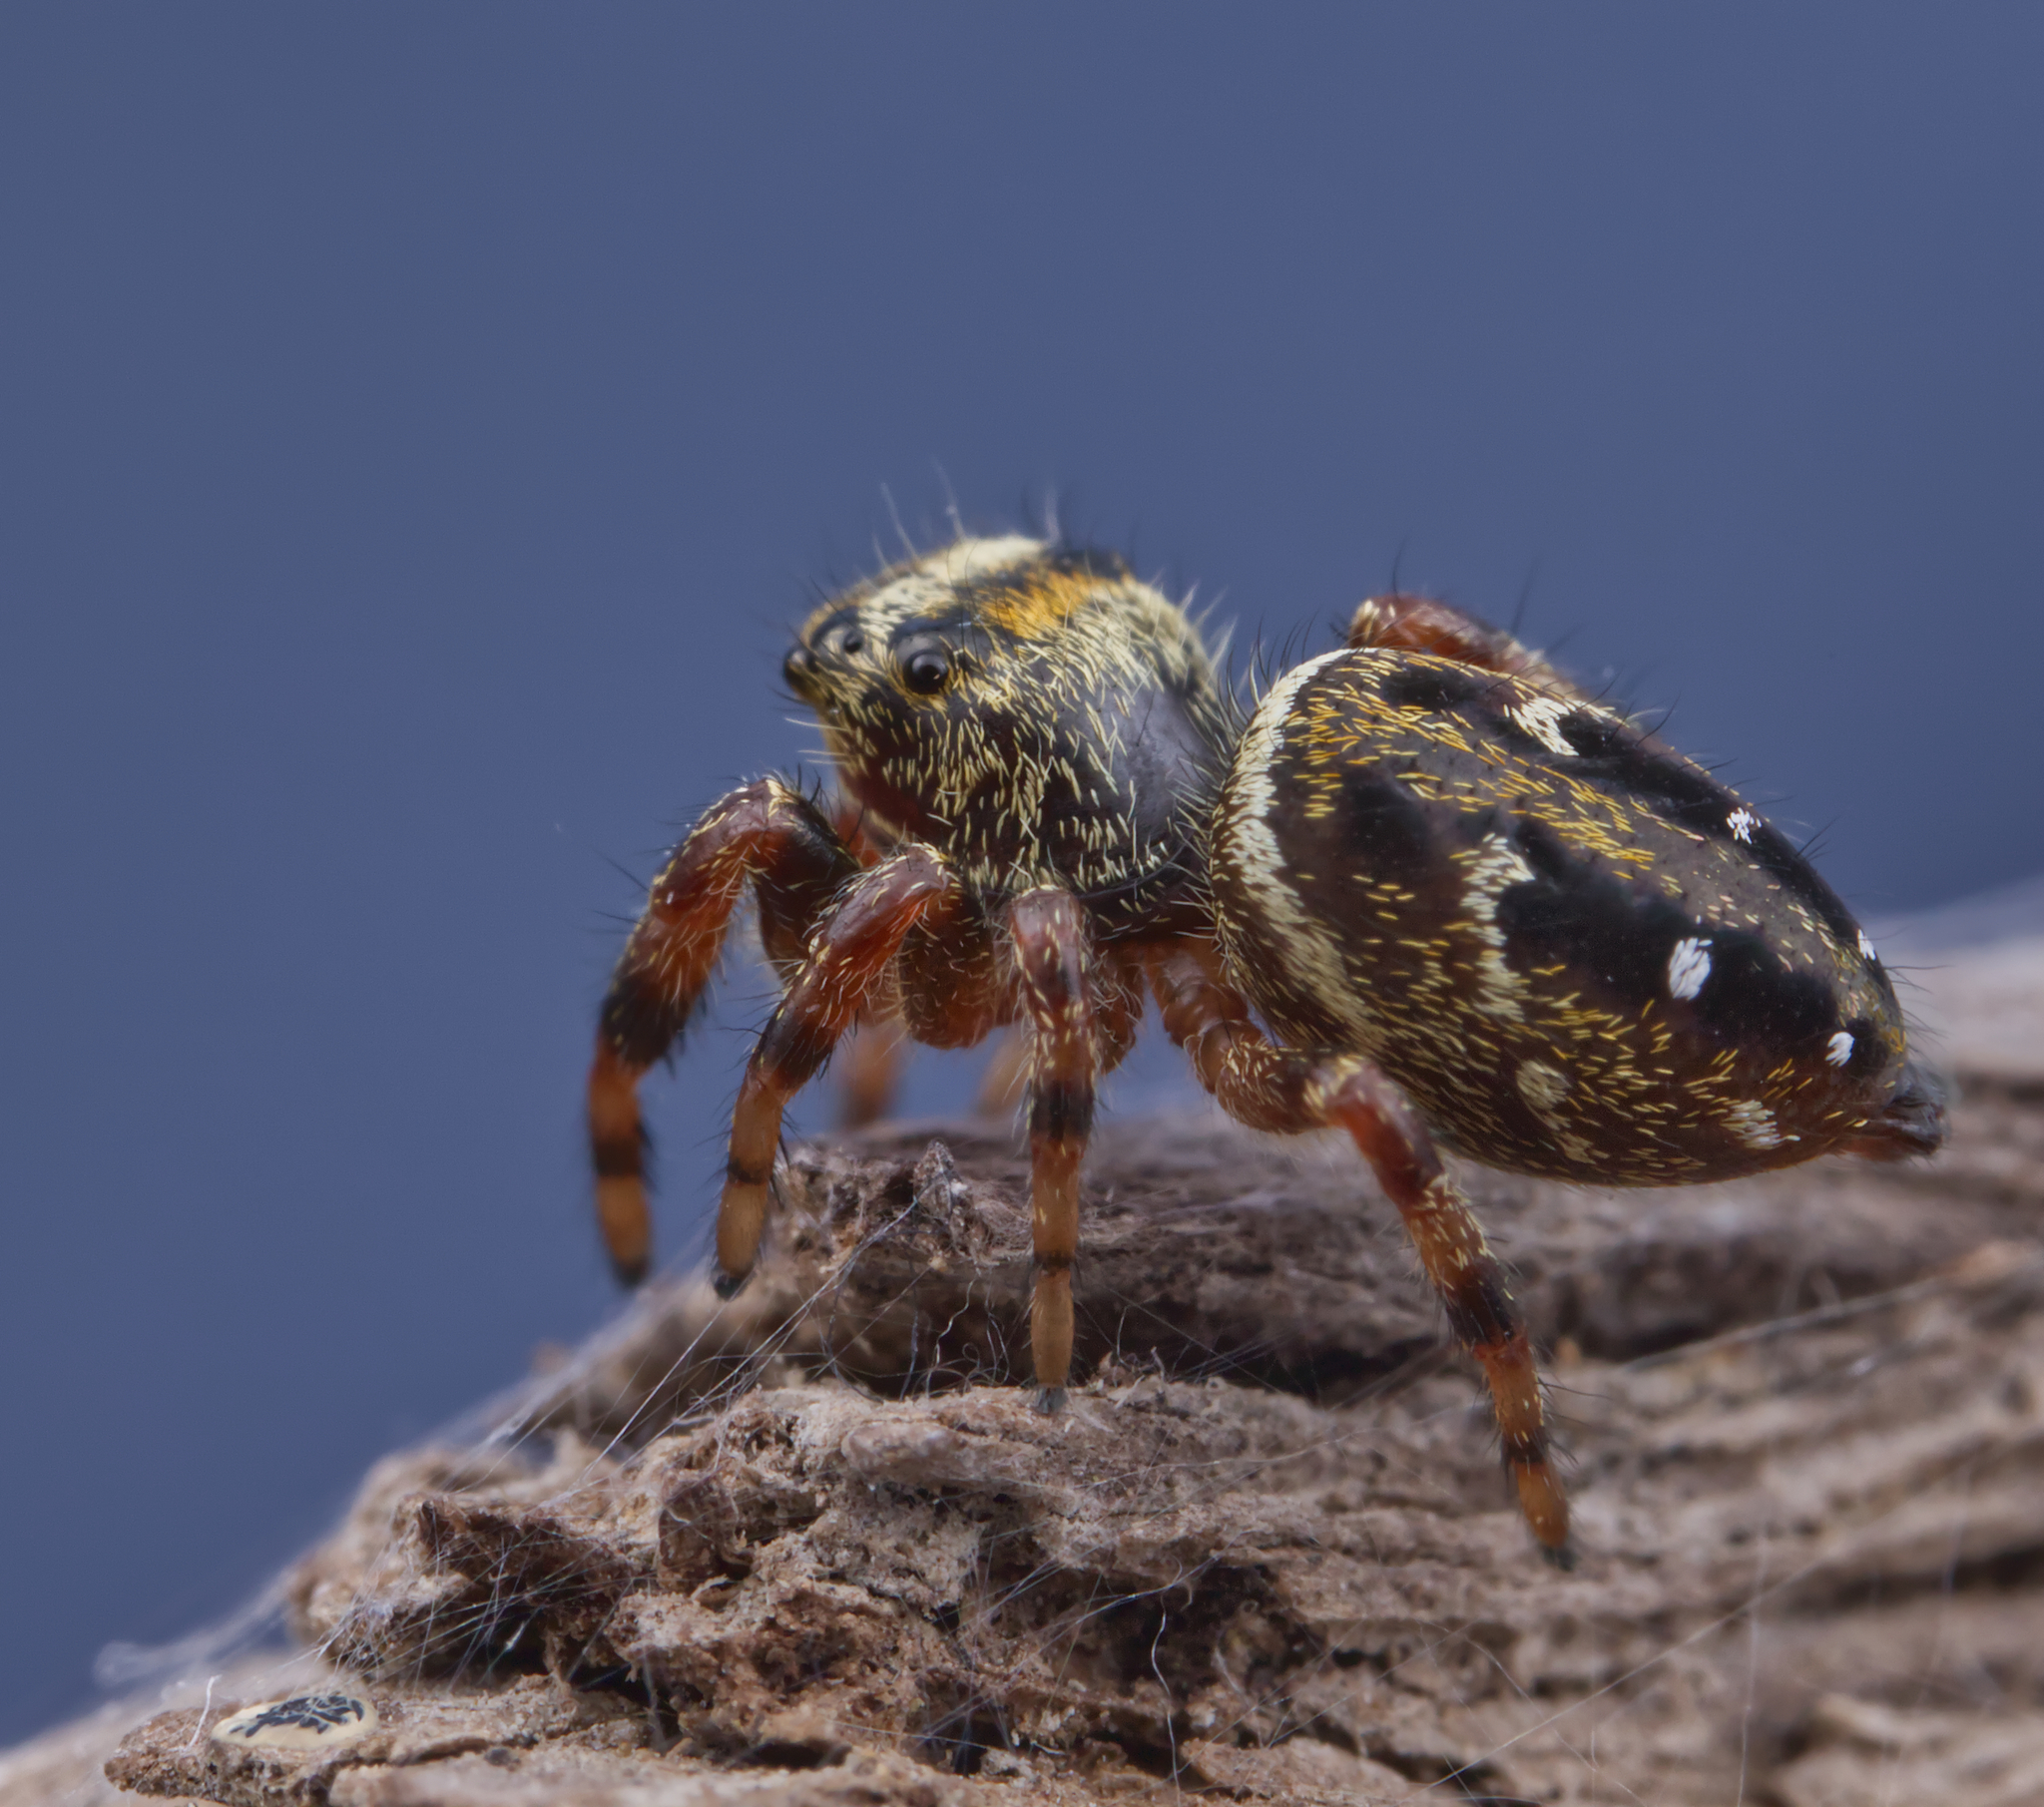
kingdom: Animalia
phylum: Arthropoda
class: Arachnida
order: Araneae
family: Salticidae
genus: Phidippus
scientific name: Phidippus clarus
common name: Brilliant jumping spider
